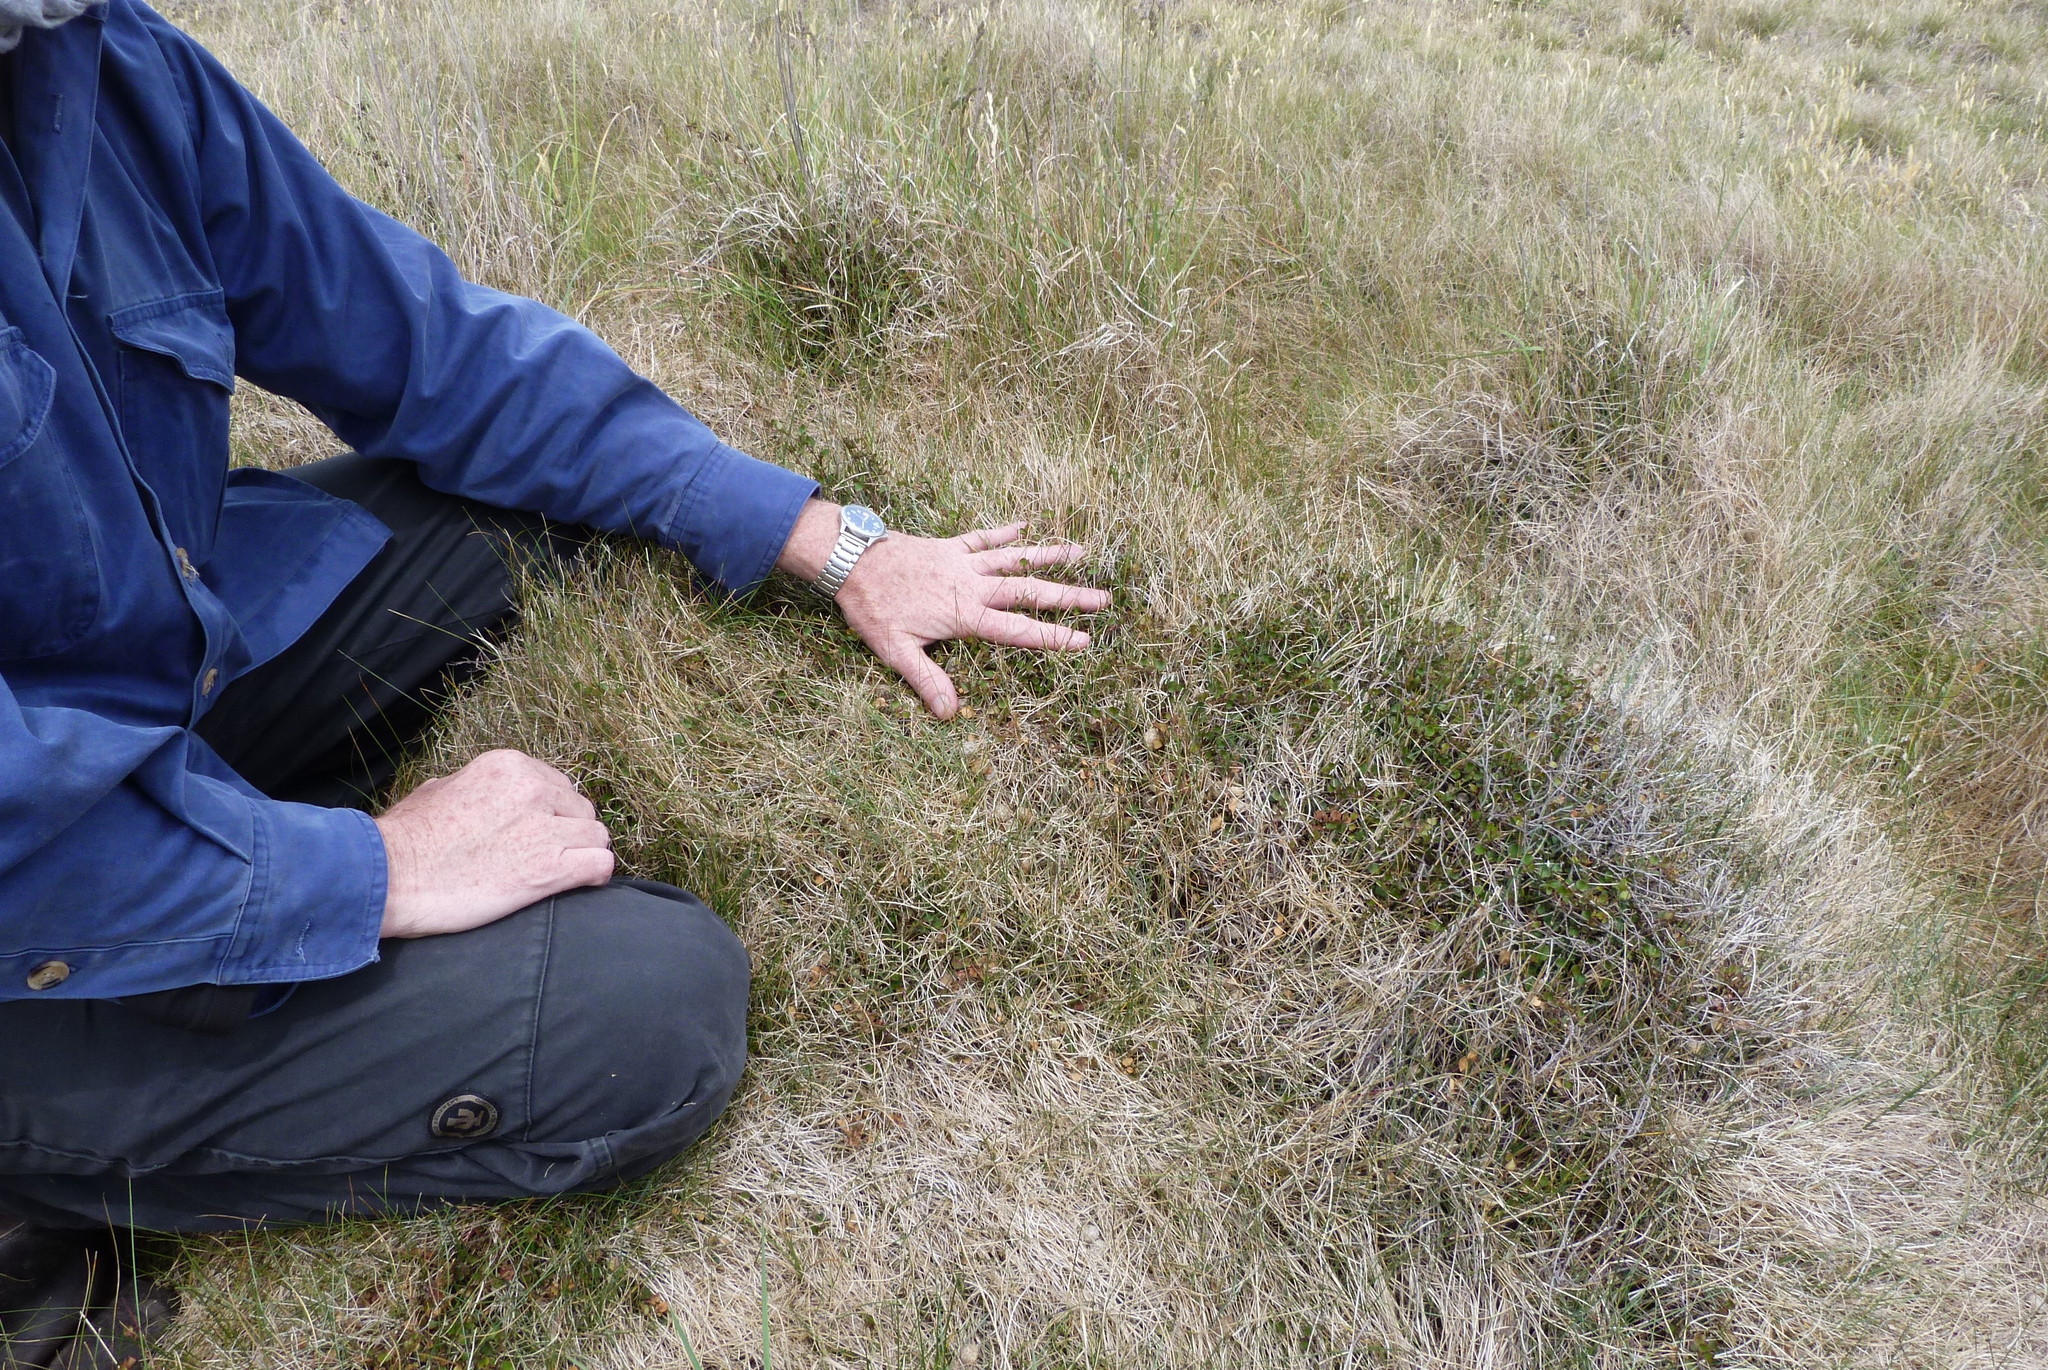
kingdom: Plantae
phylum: Tracheophyta
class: Magnoliopsida
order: Caryophyllales
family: Polygonaceae
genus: Muehlenbeckia
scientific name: Muehlenbeckia complexa
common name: Wireplant
